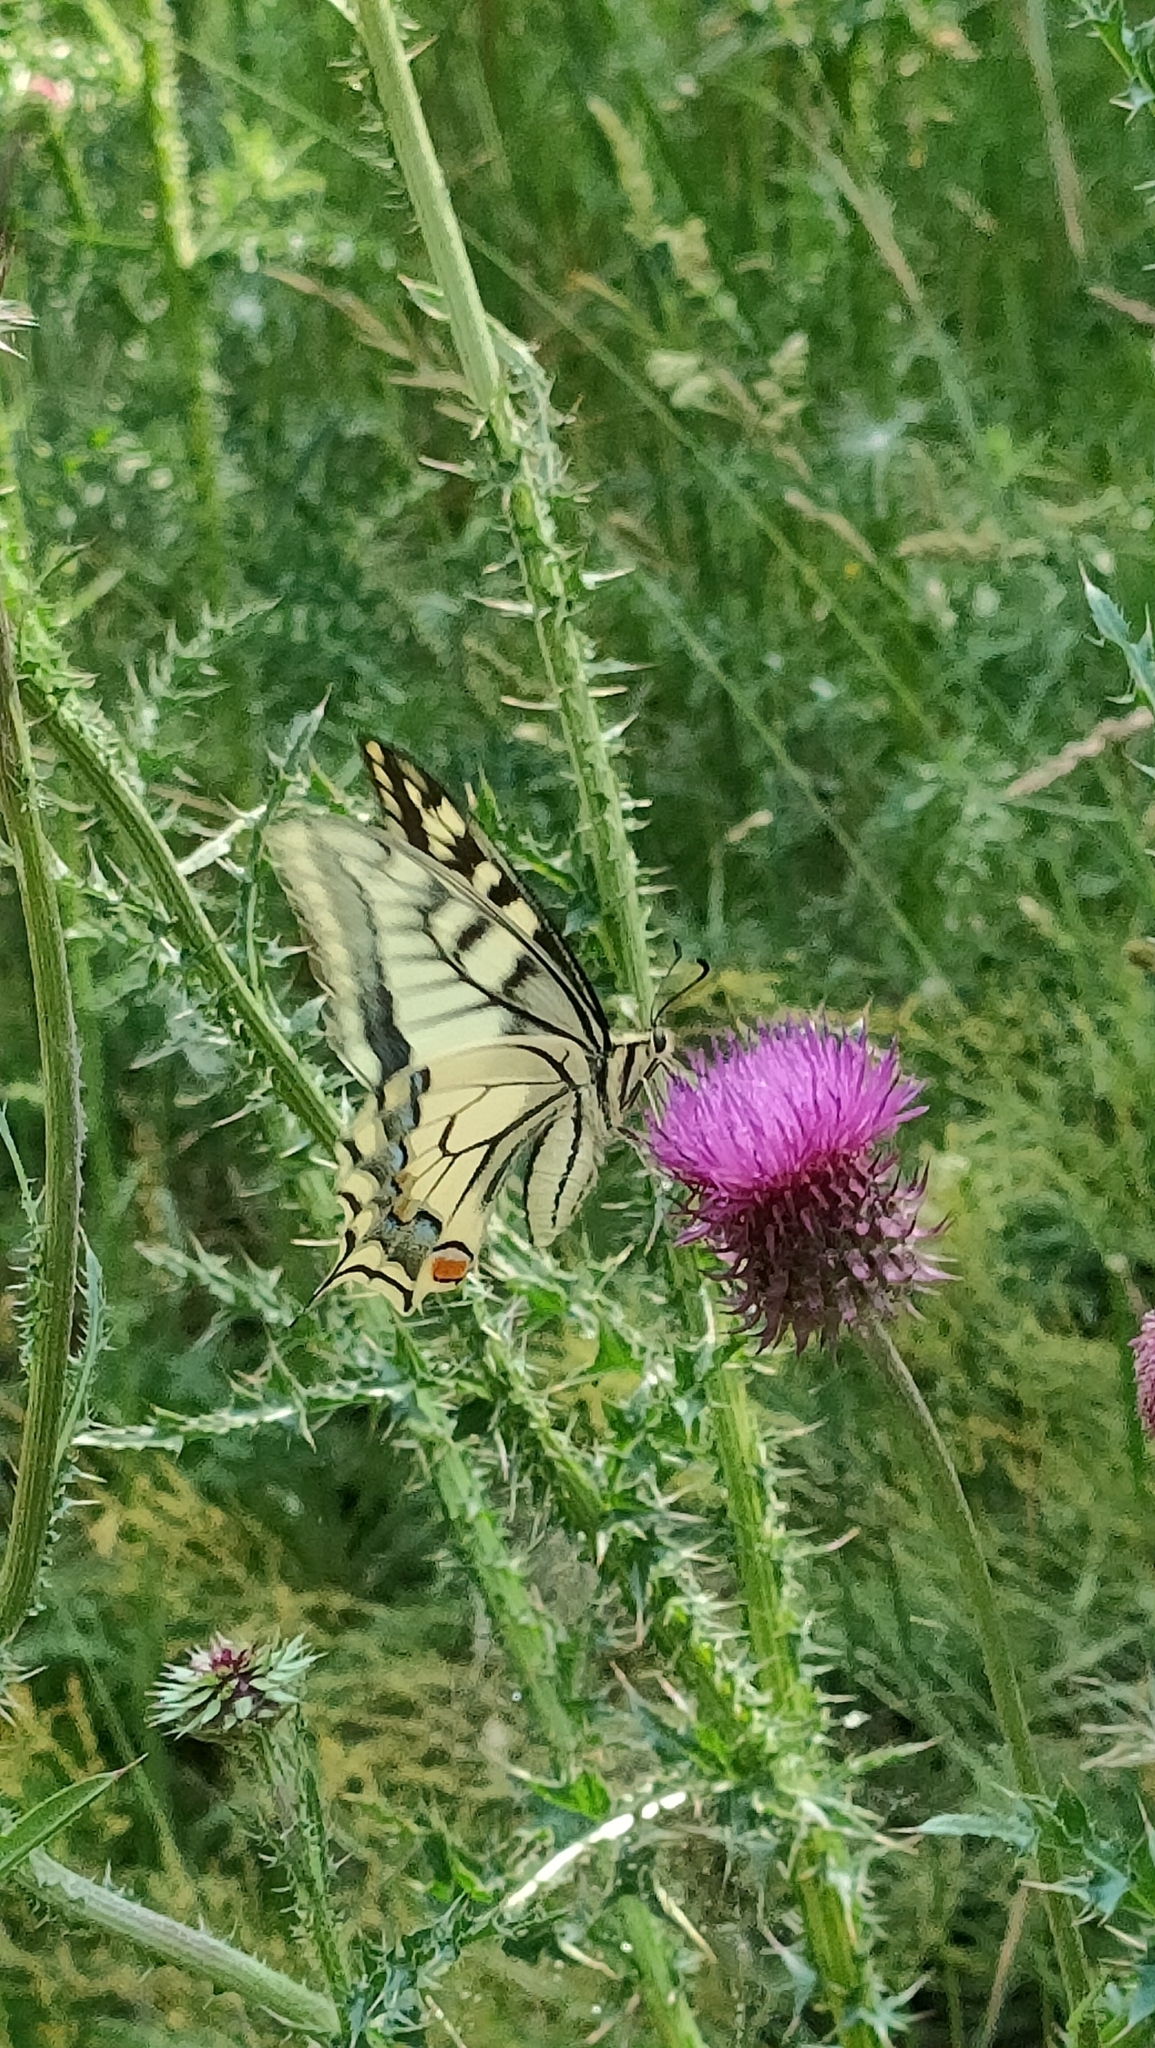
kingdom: Animalia
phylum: Arthropoda
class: Insecta
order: Lepidoptera
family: Papilionidae
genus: Papilio
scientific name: Papilio machaon
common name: Swallowtail
